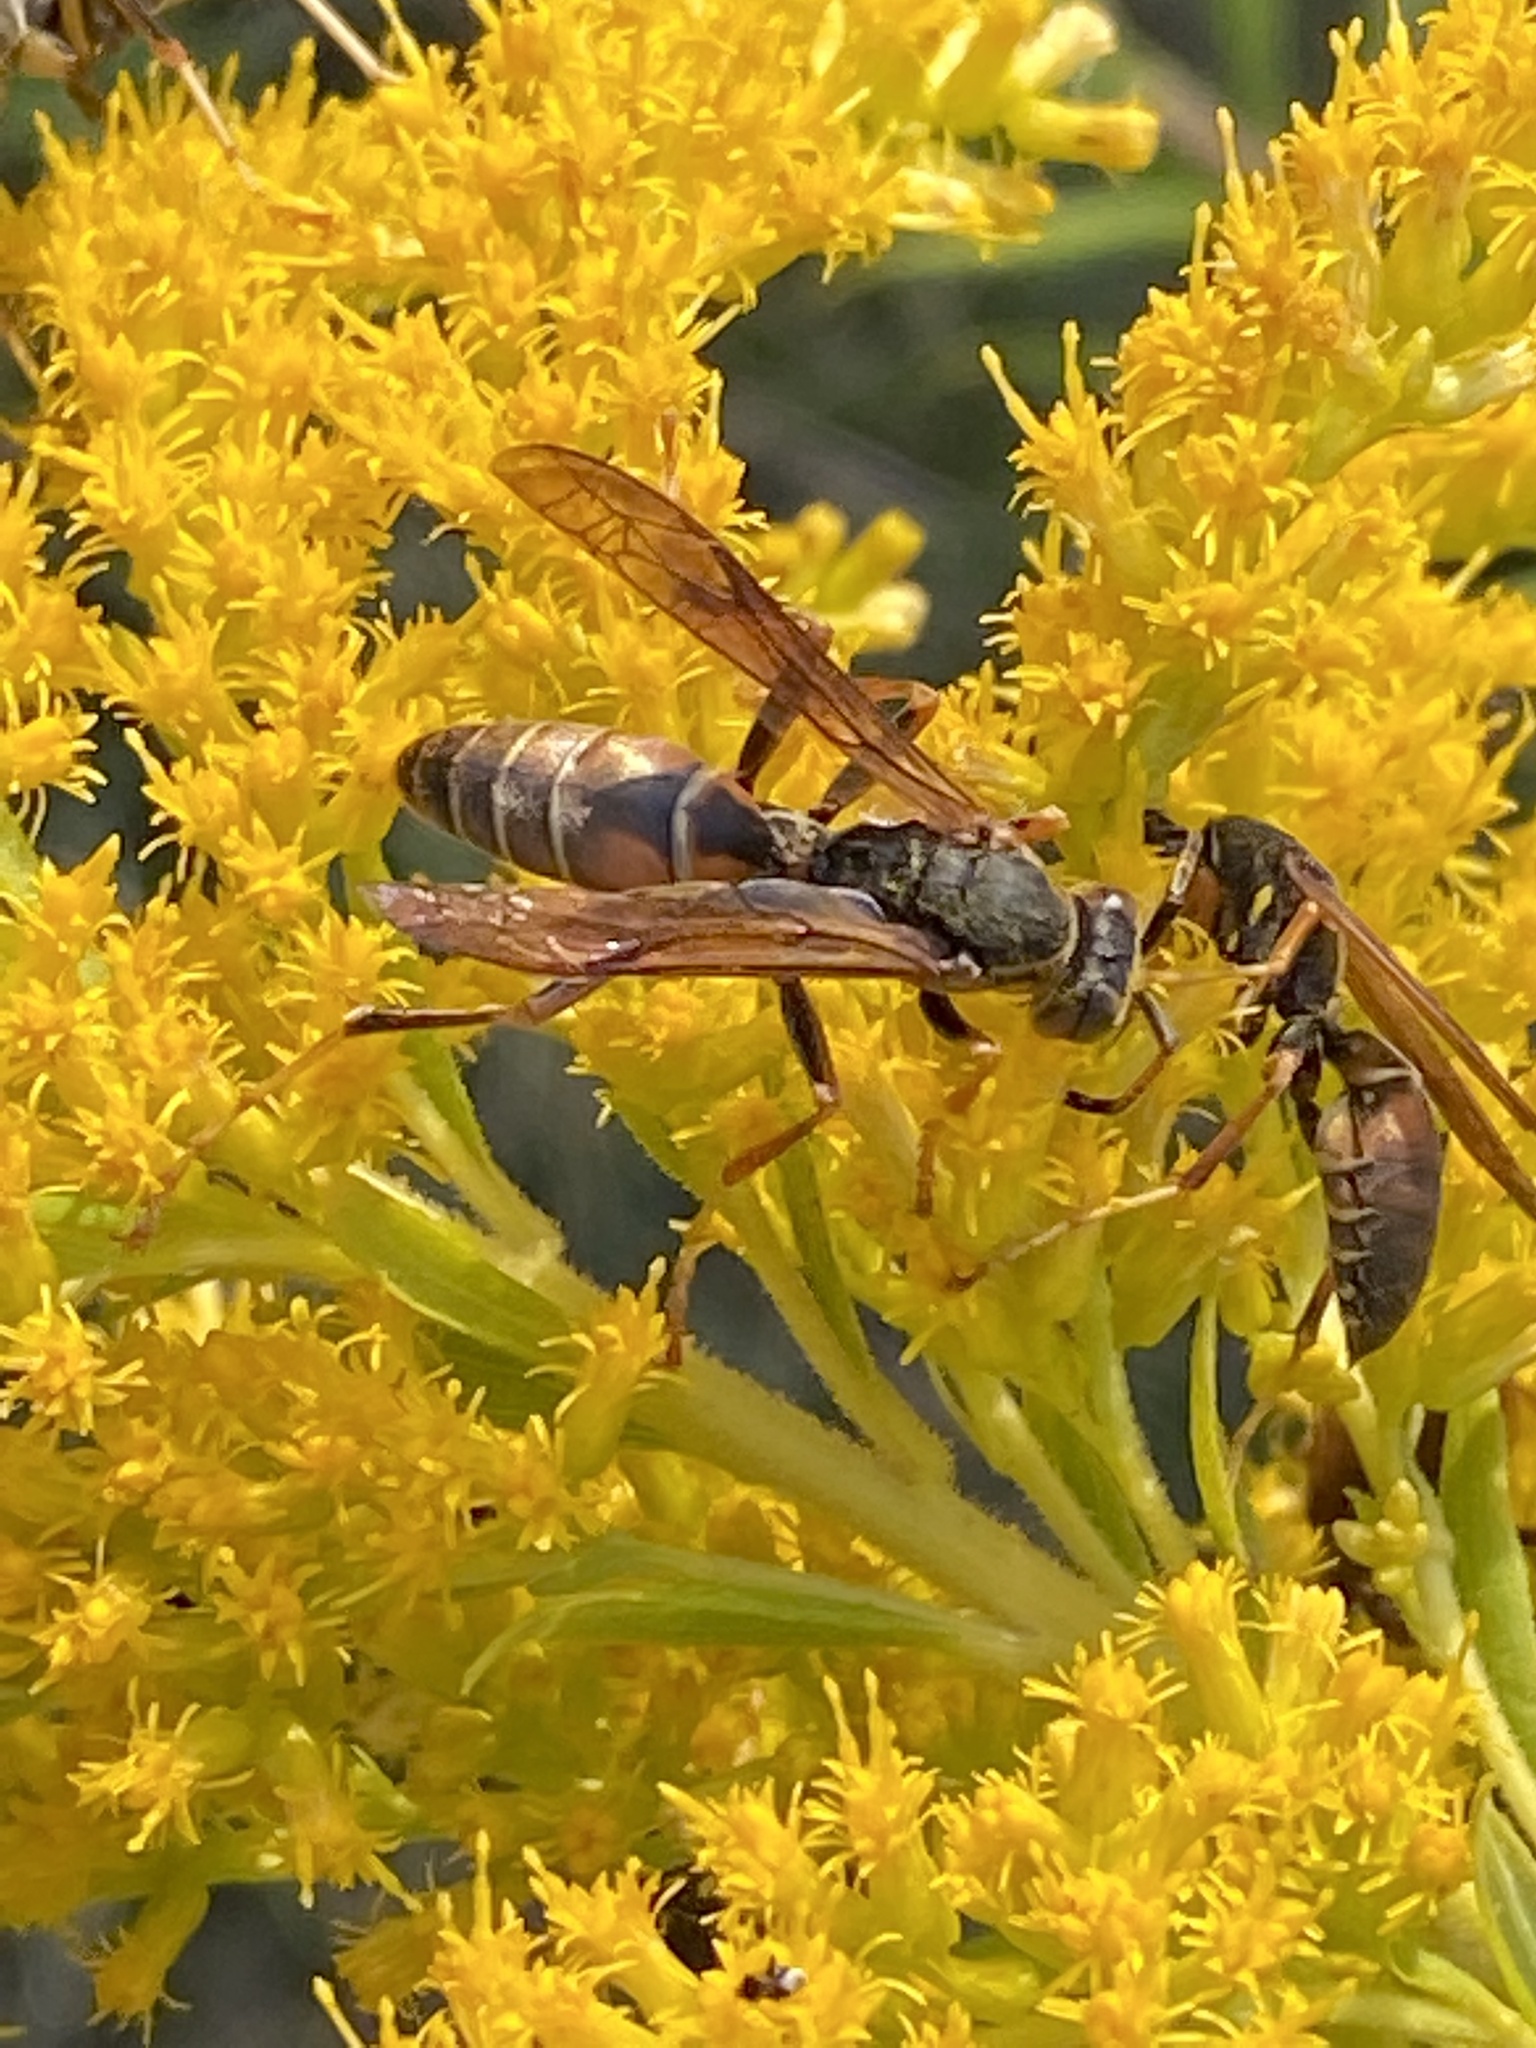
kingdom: Animalia
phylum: Arthropoda
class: Insecta
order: Hymenoptera
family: Eumenidae
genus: Polistes
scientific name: Polistes fuscatus
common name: Dark paper wasp
